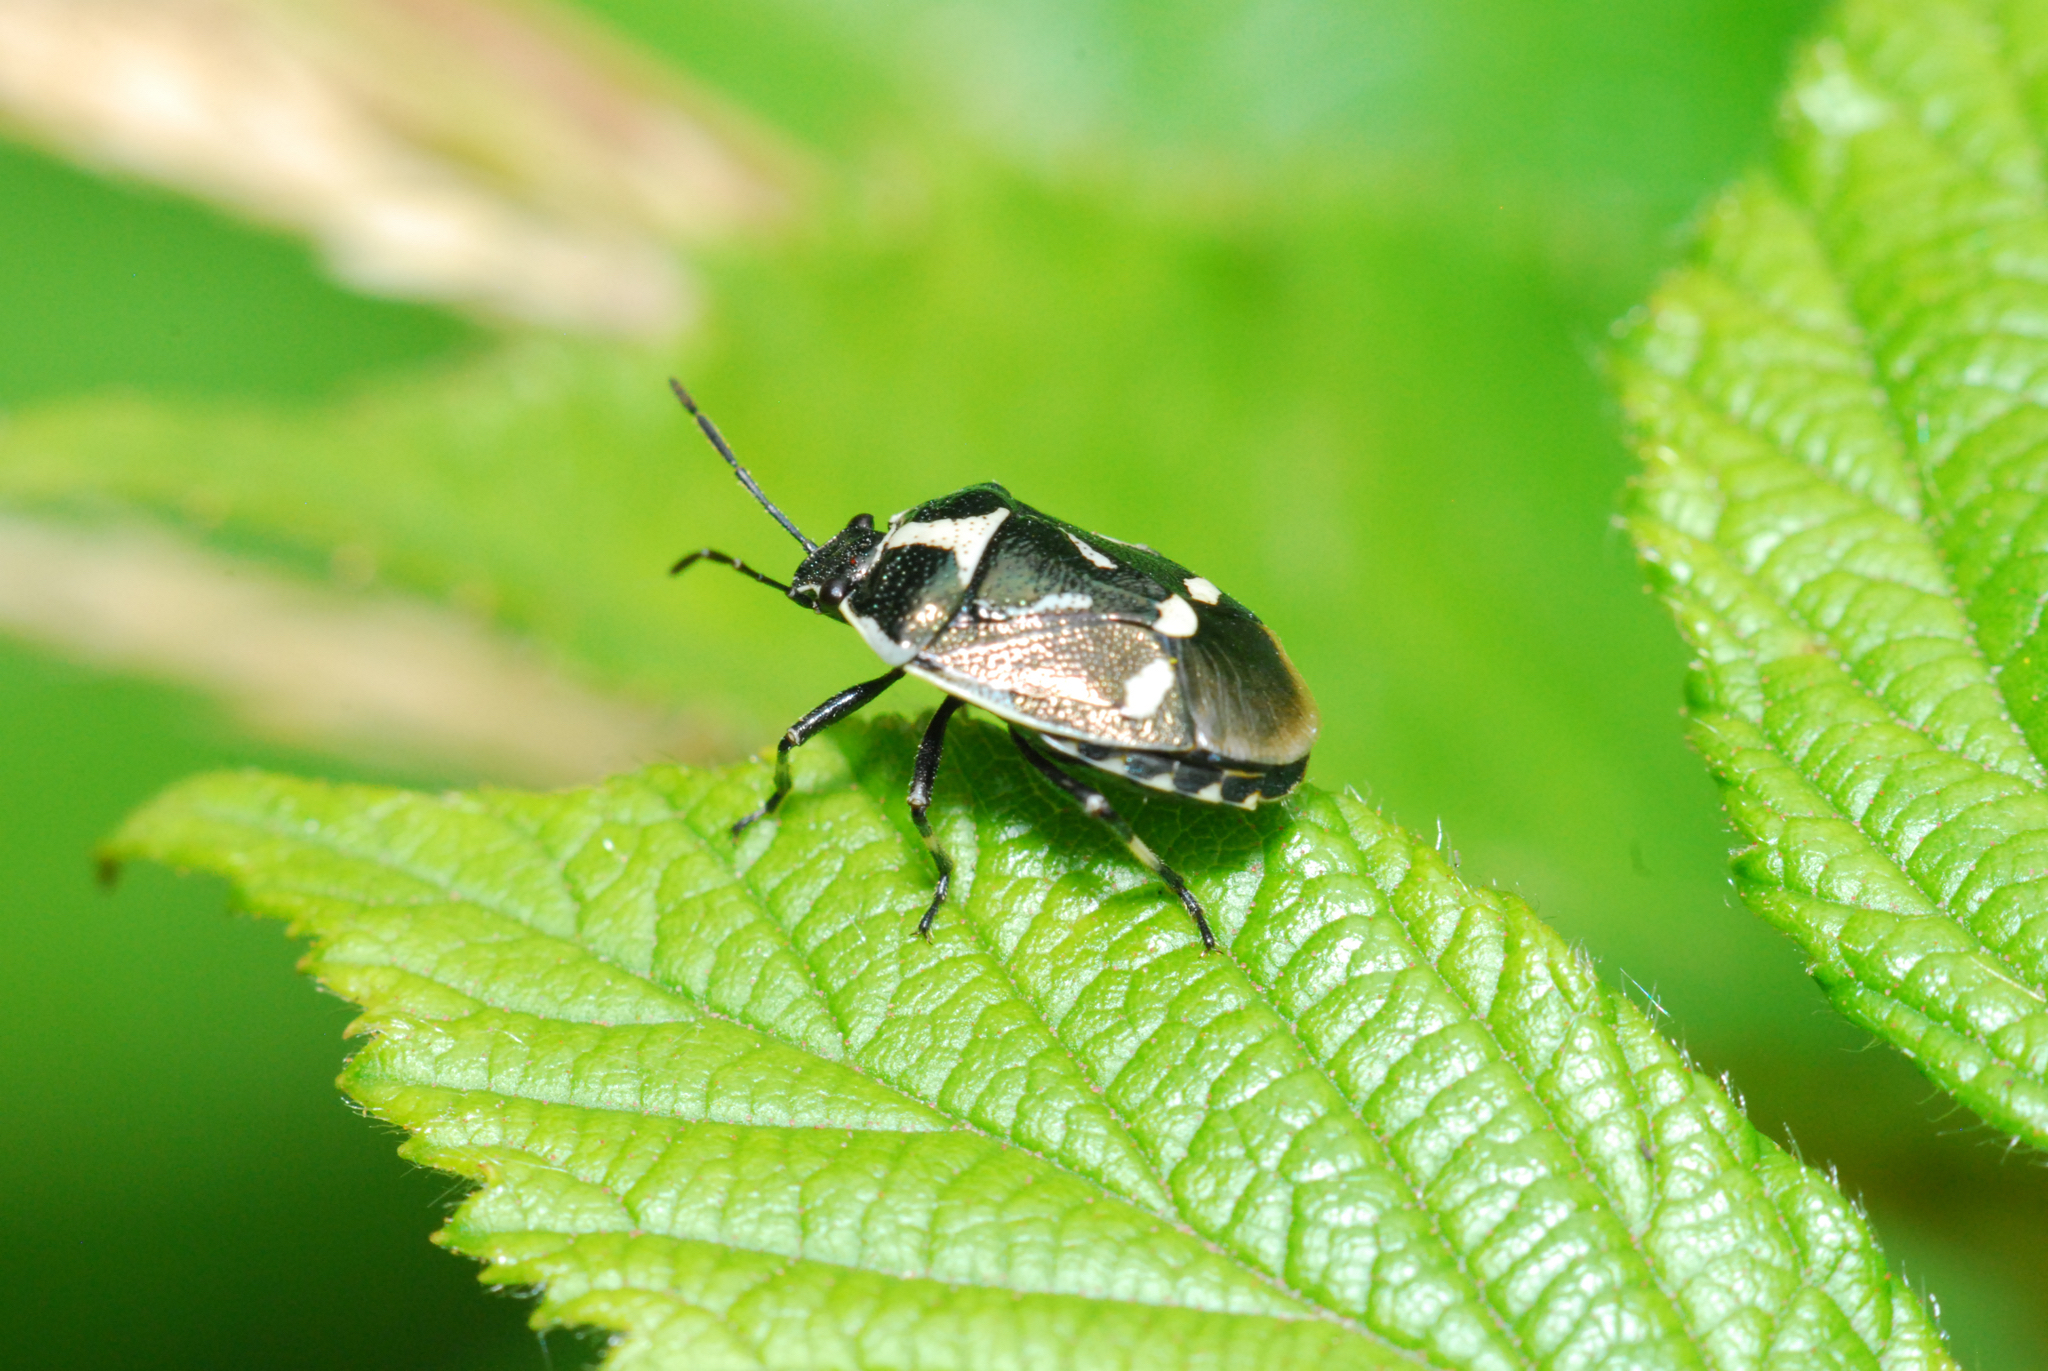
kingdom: Animalia
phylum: Arthropoda
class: Insecta
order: Hemiptera
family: Pentatomidae
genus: Eurydema
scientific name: Eurydema oleracea
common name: Cabbage bug
